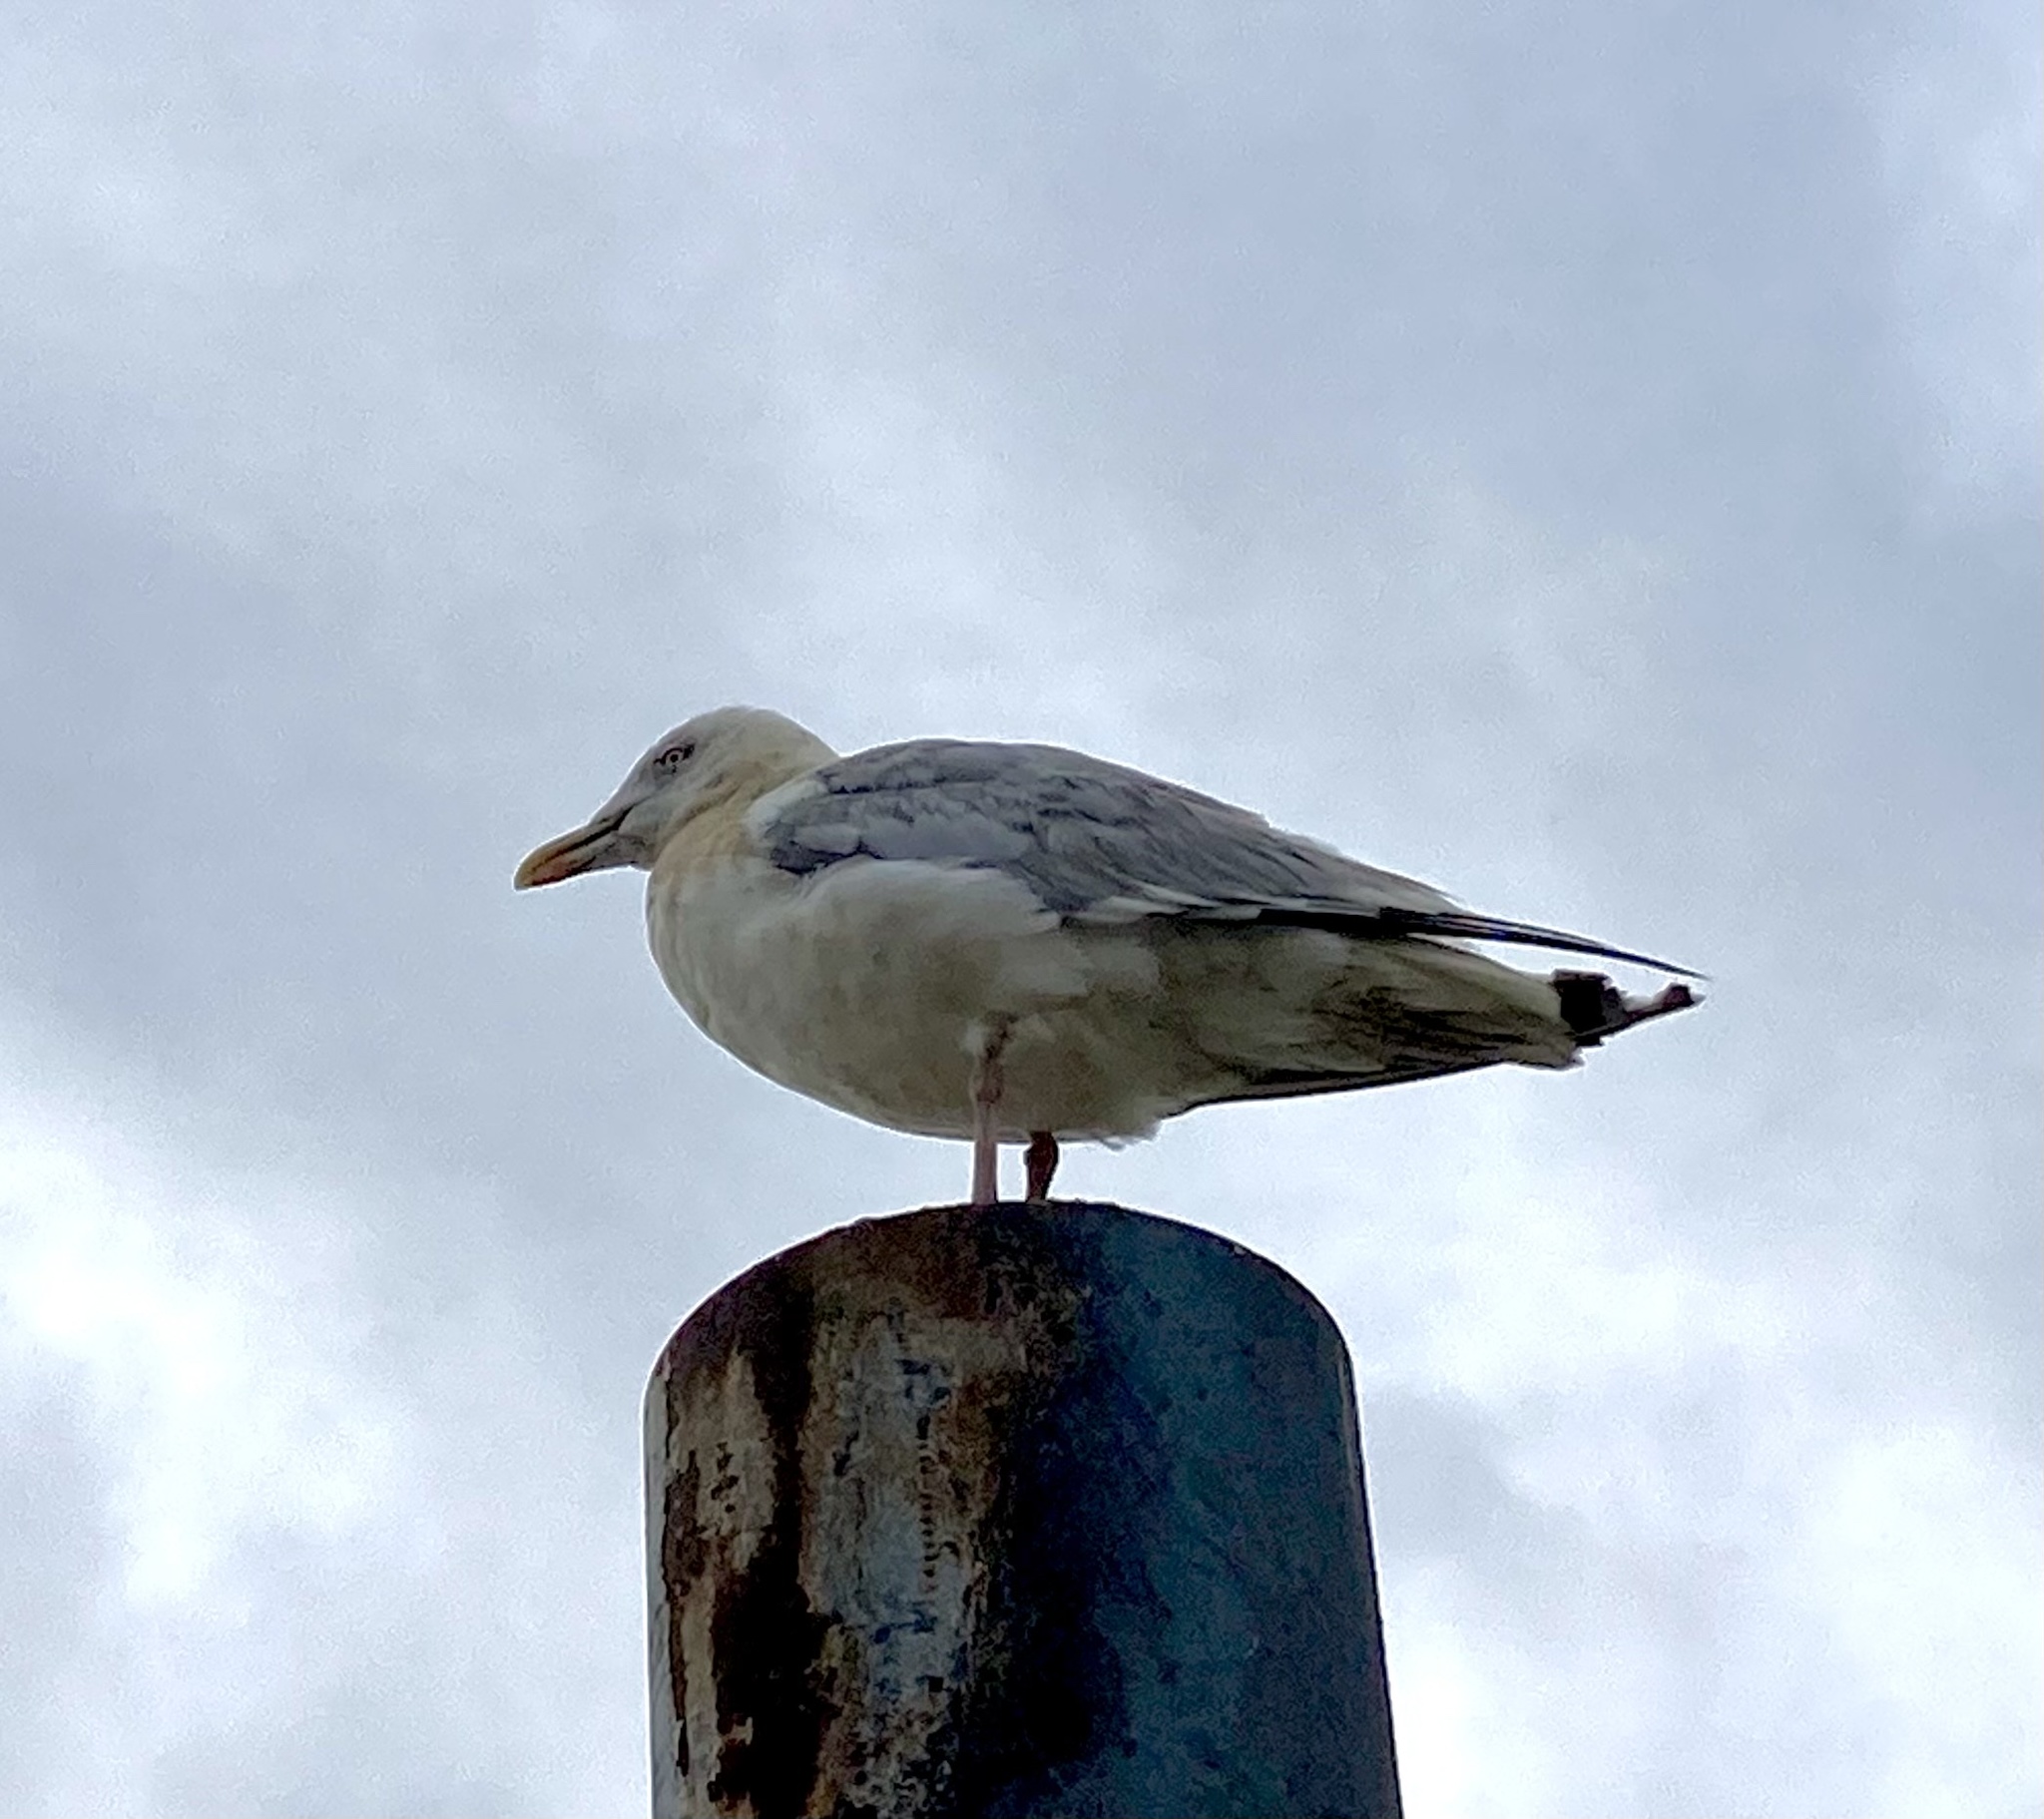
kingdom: Animalia
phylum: Chordata
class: Aves
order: Charadriiformes
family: Laridae
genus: Larus
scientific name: Larus argentatus
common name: Herring gull
